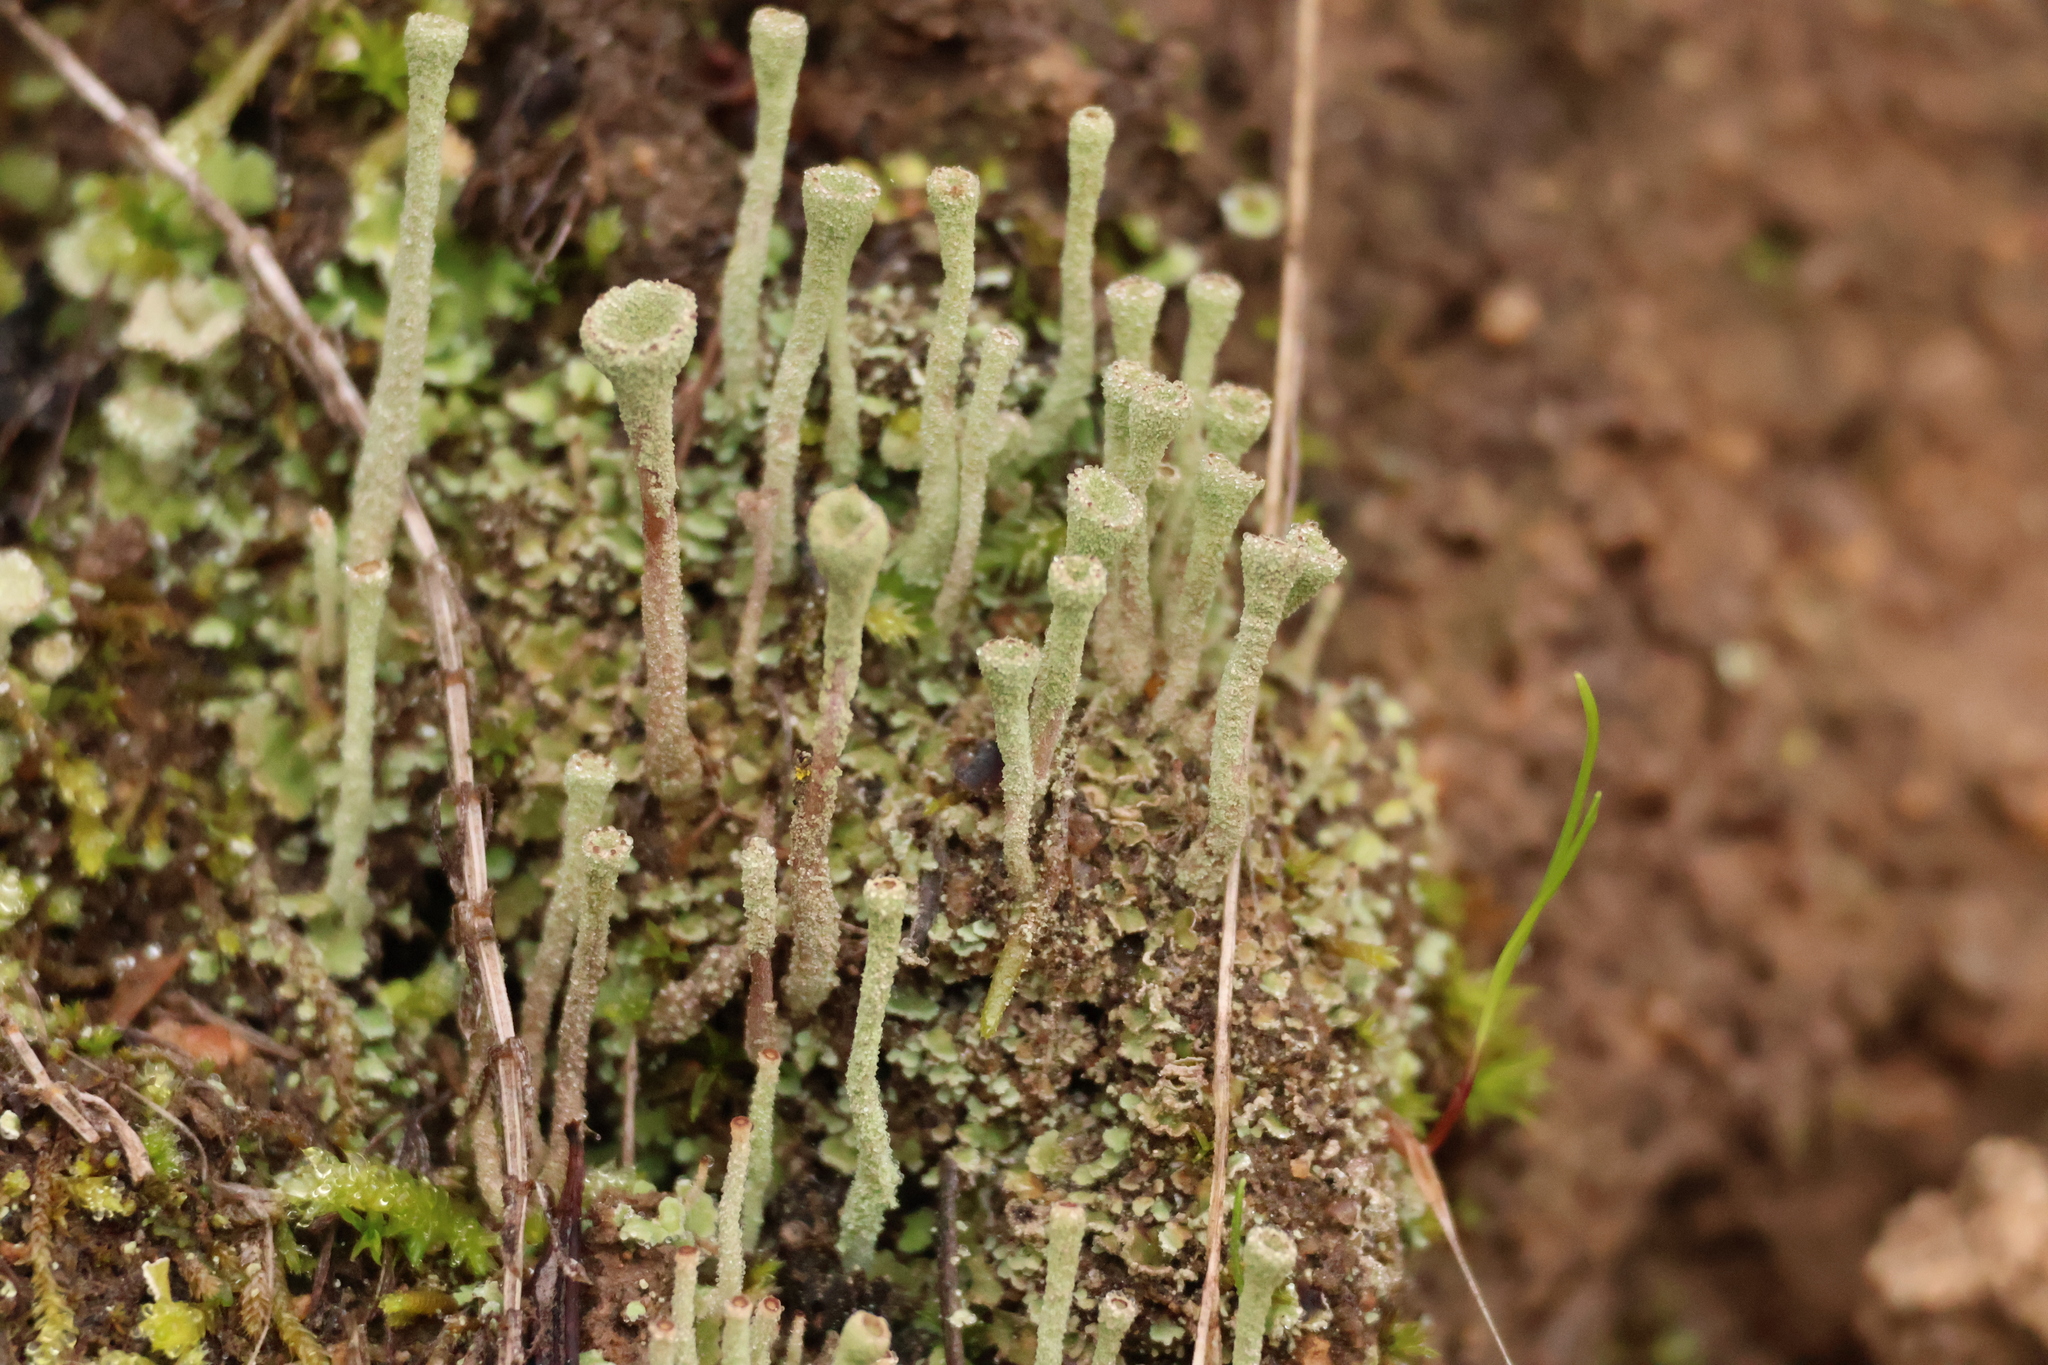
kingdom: Fungi
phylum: Ascomycota
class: Lecanoromycetes
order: Lecanorales
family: Cladoniaceae
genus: Cladonia
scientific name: Cladonia fimbriata
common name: Powdered trumpet lichen
